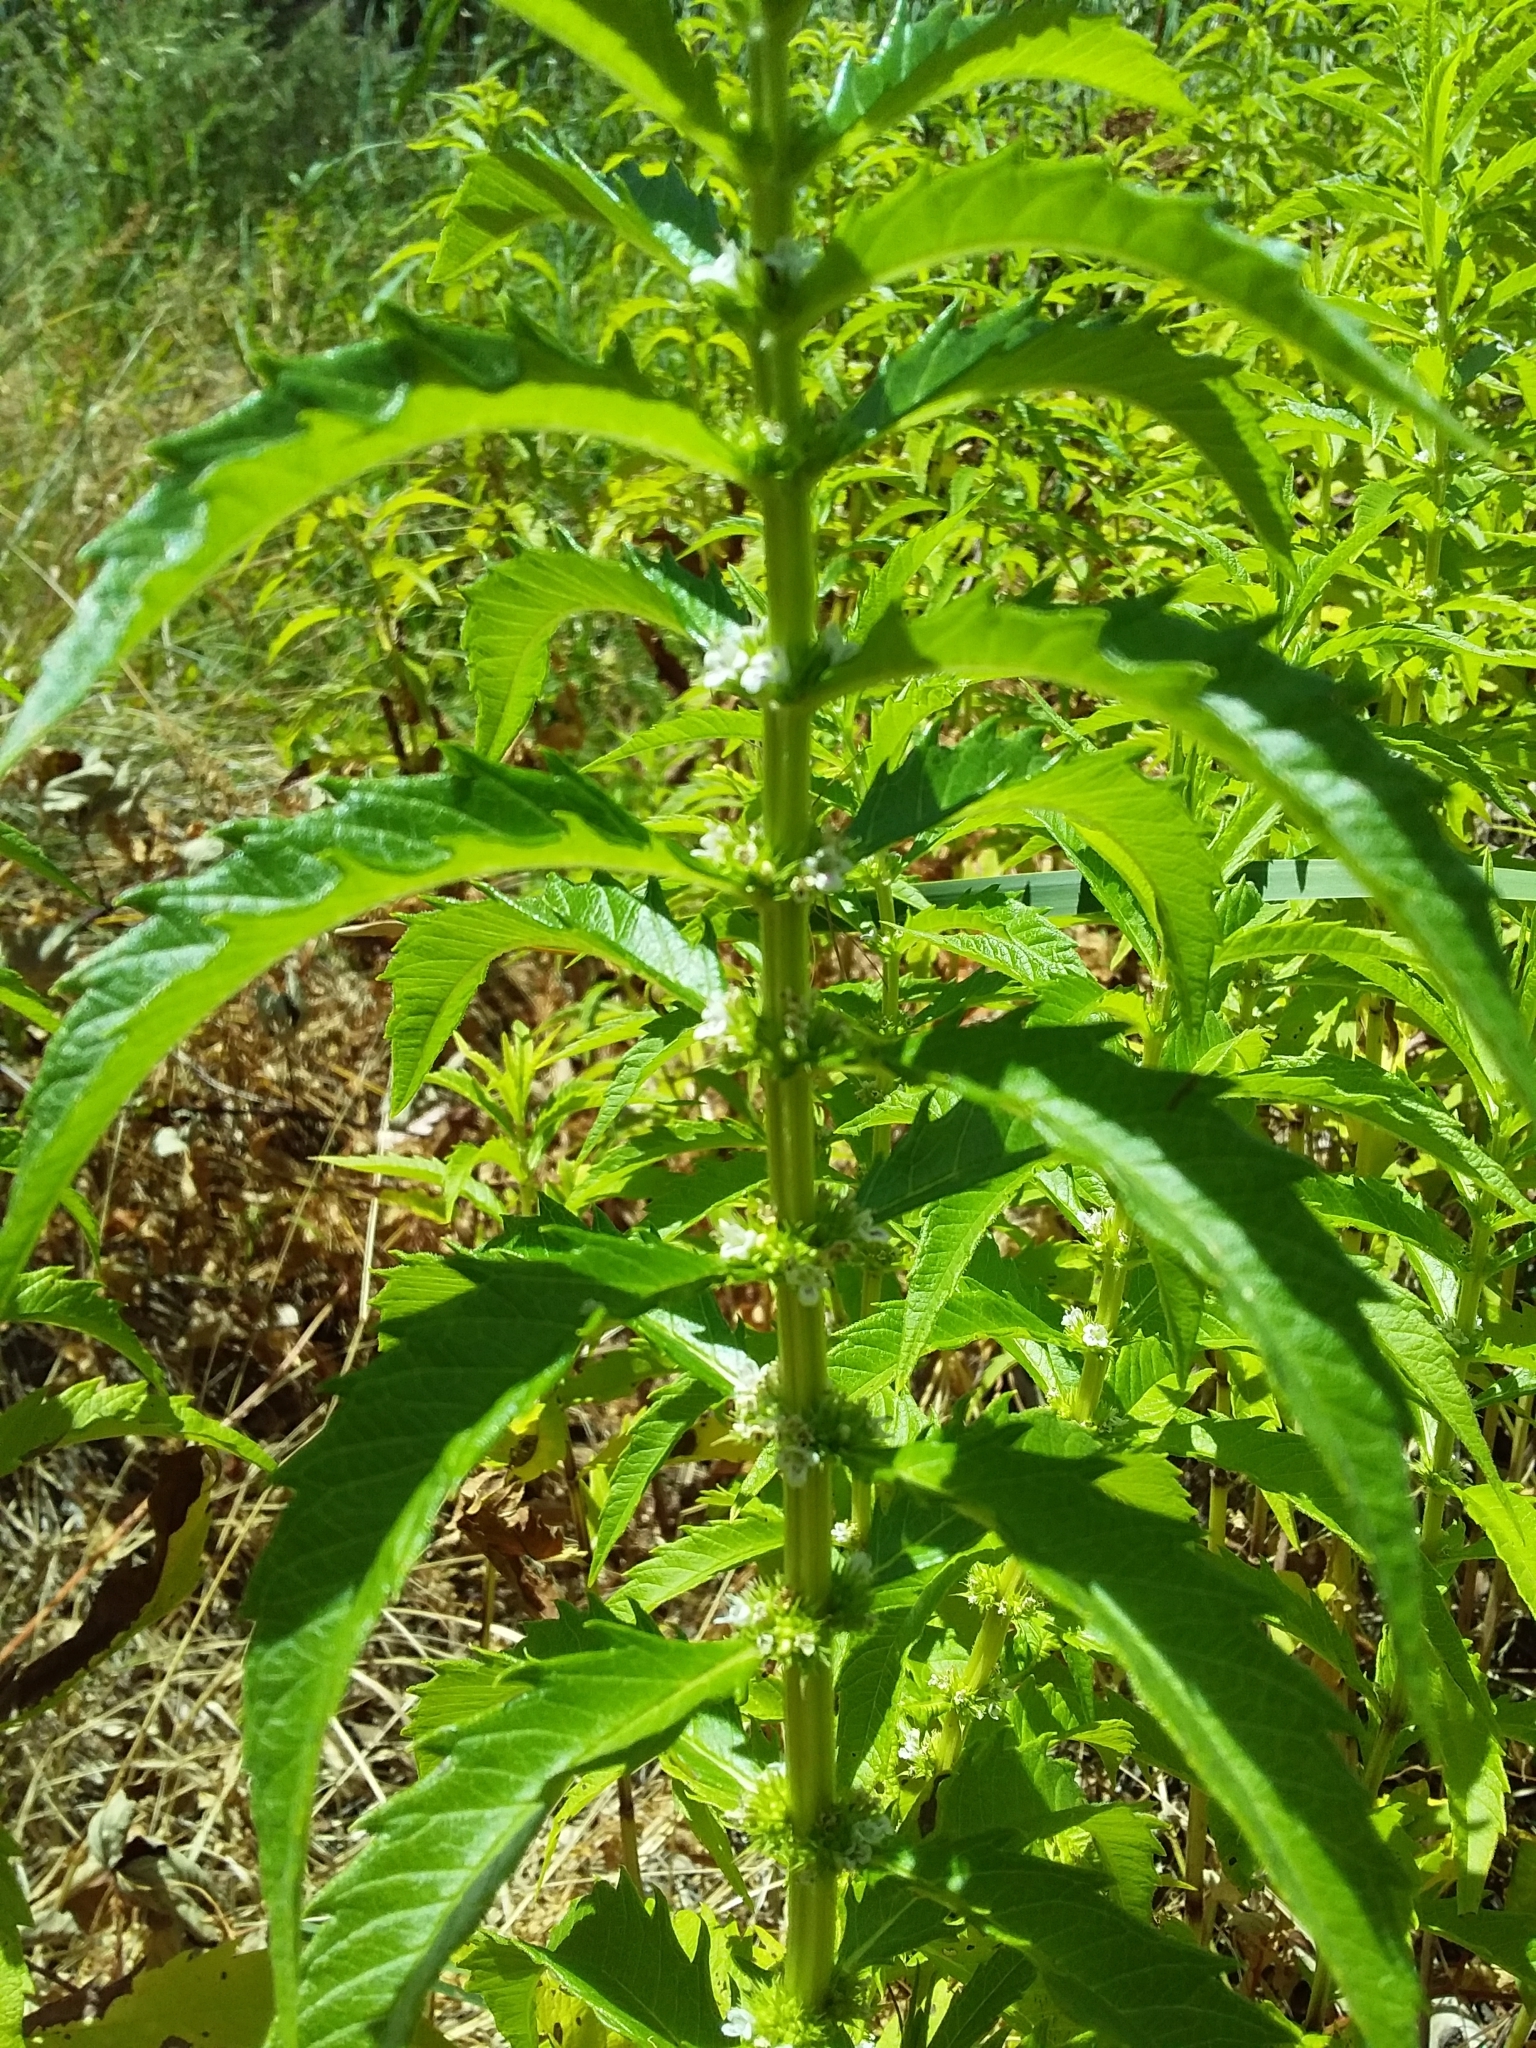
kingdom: Plantae
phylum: Tracheophyta
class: Magnoliopsida
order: Lamiales
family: Lamiaceae
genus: Lycopus
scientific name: Lycopus australis
